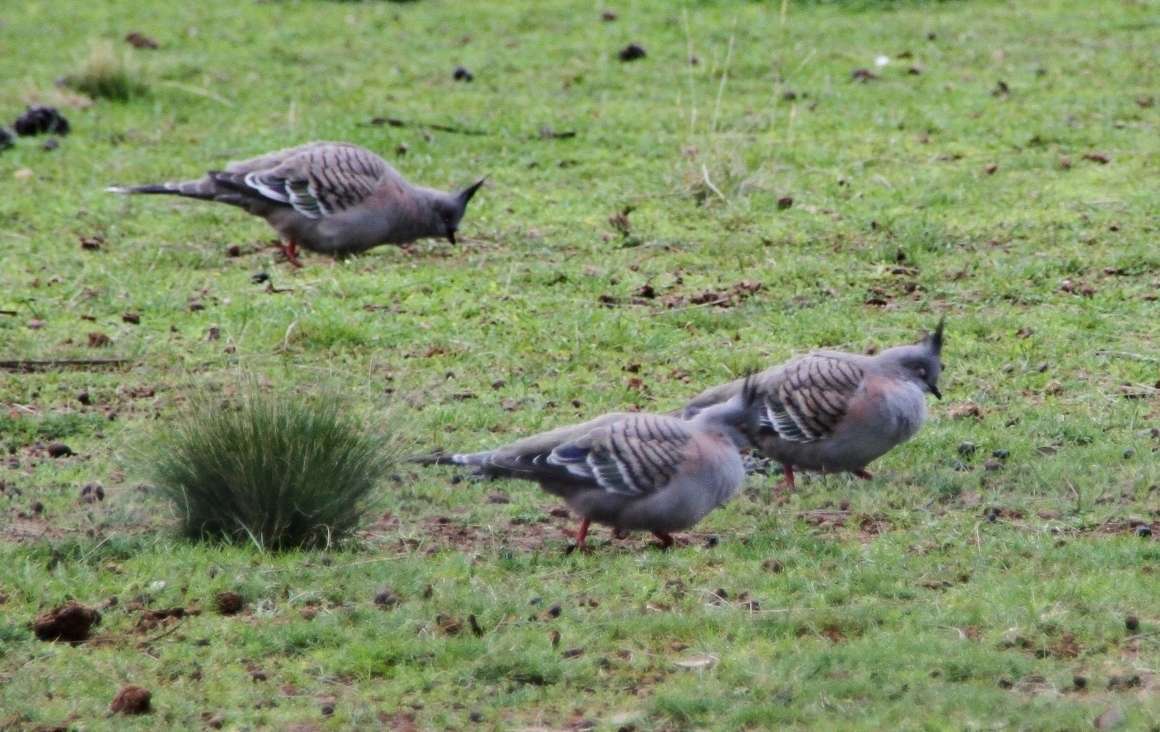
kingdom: Animalia
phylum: Chordata
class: Aves
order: Columbiformes
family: Columbidae
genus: Ocyphaps
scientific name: Ocyphaps lophotes
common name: Crested pigeon
